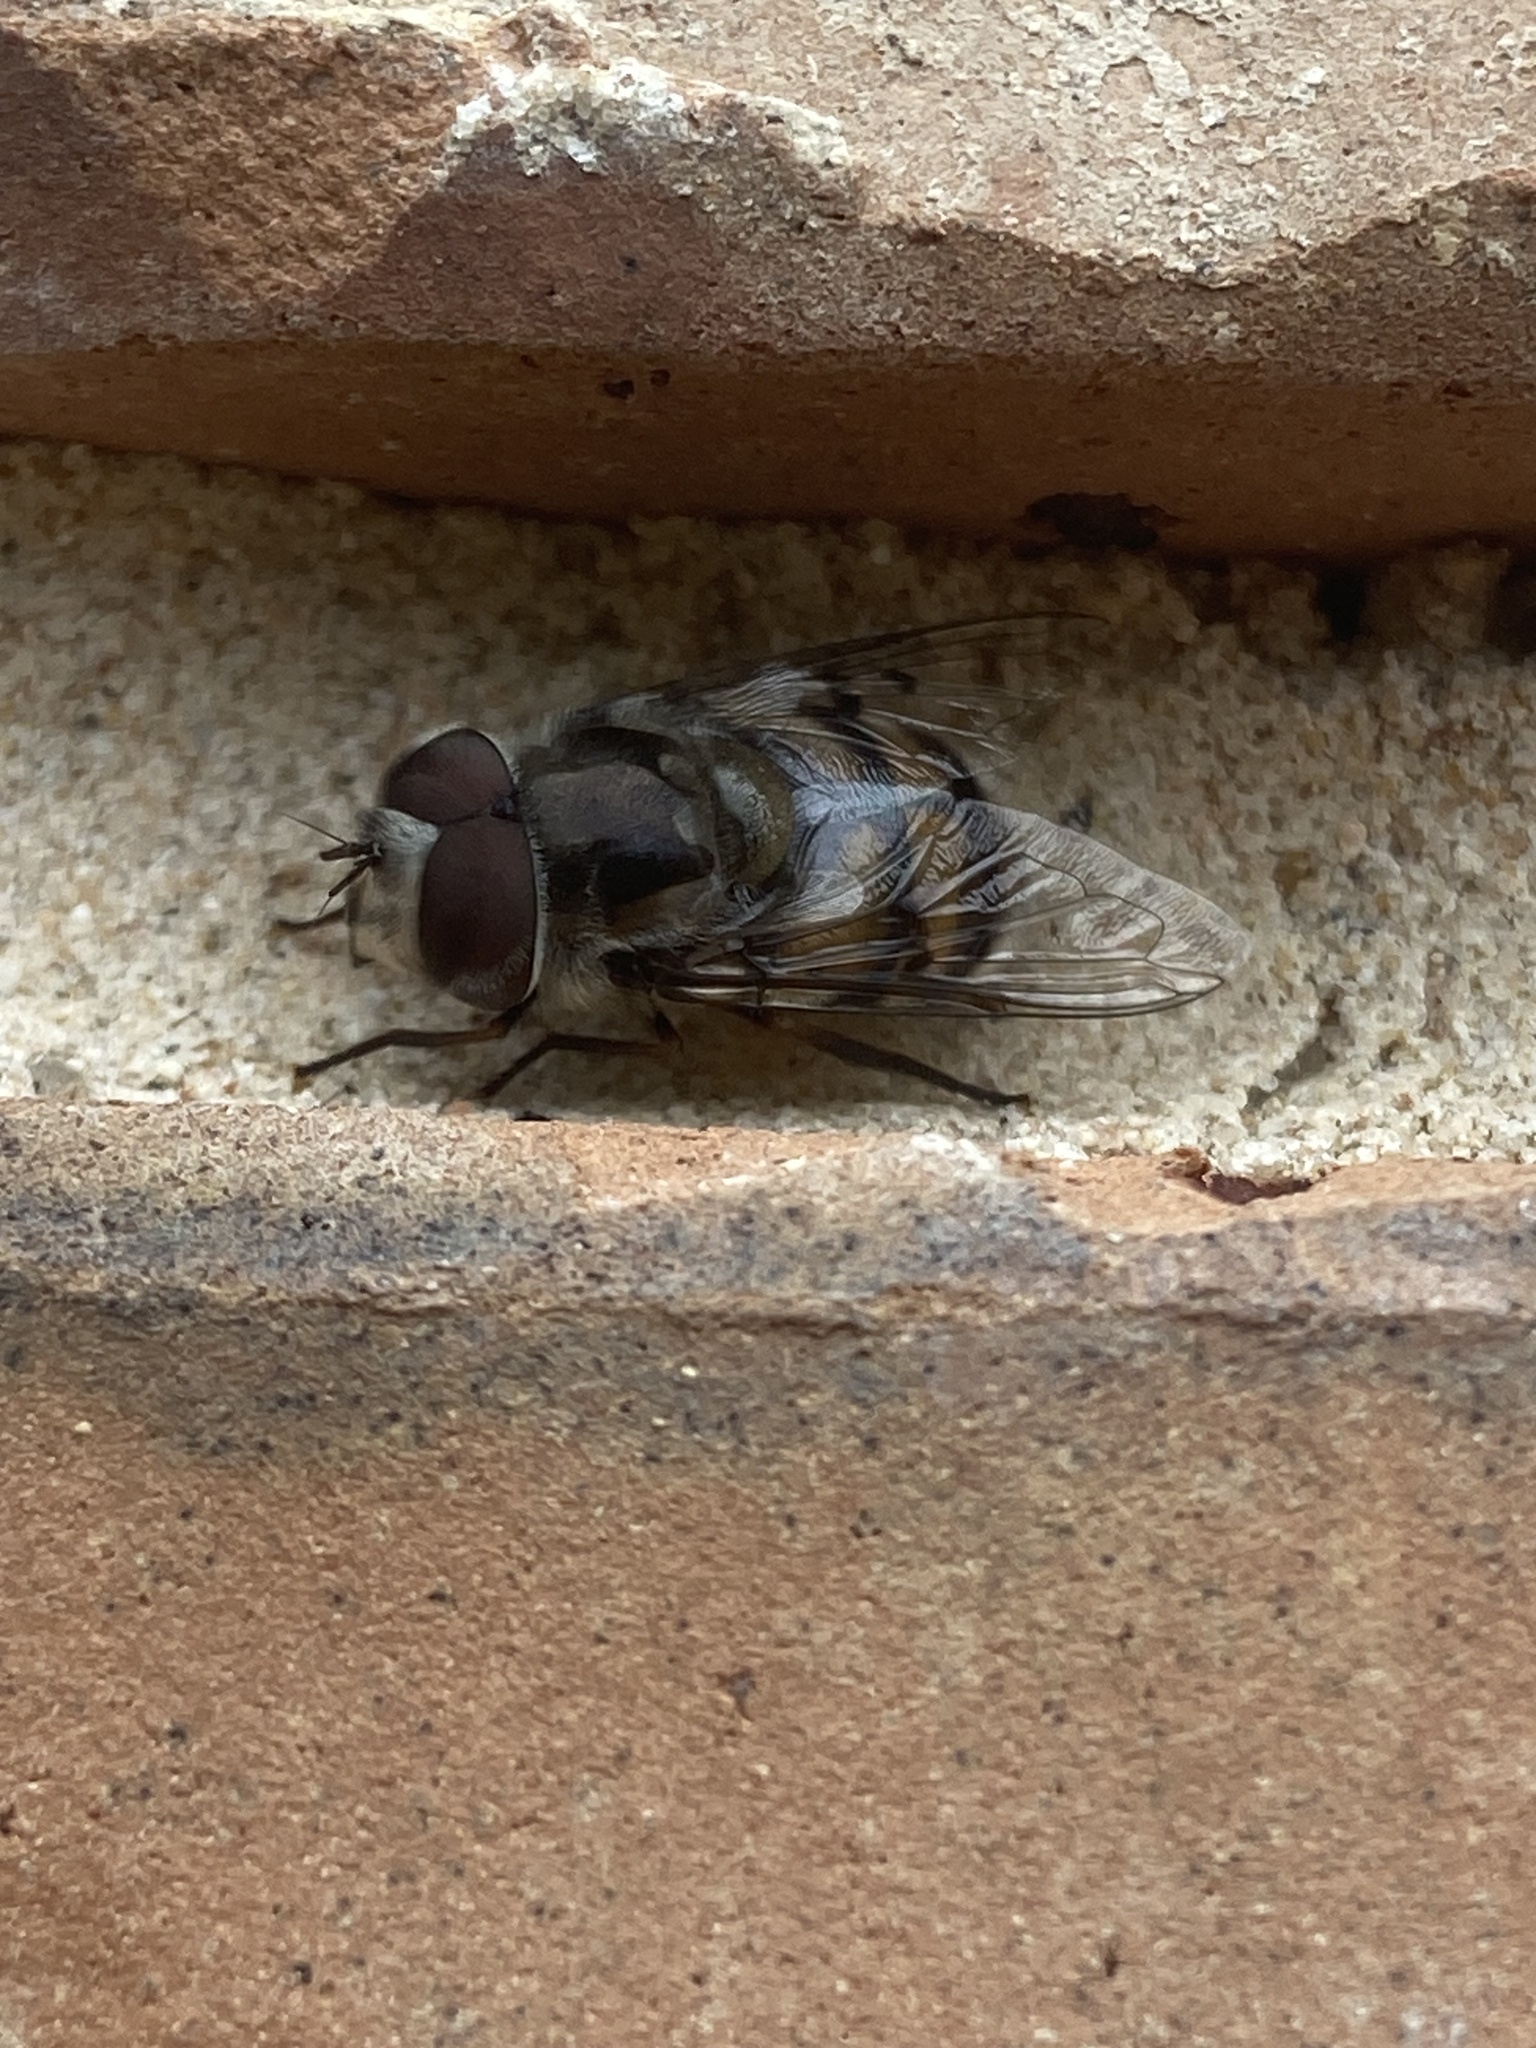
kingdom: Animalia
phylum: Arthropoda
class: Insecta
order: Diptera
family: Syrphidae
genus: Copestylum
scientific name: Copestylum avidum
